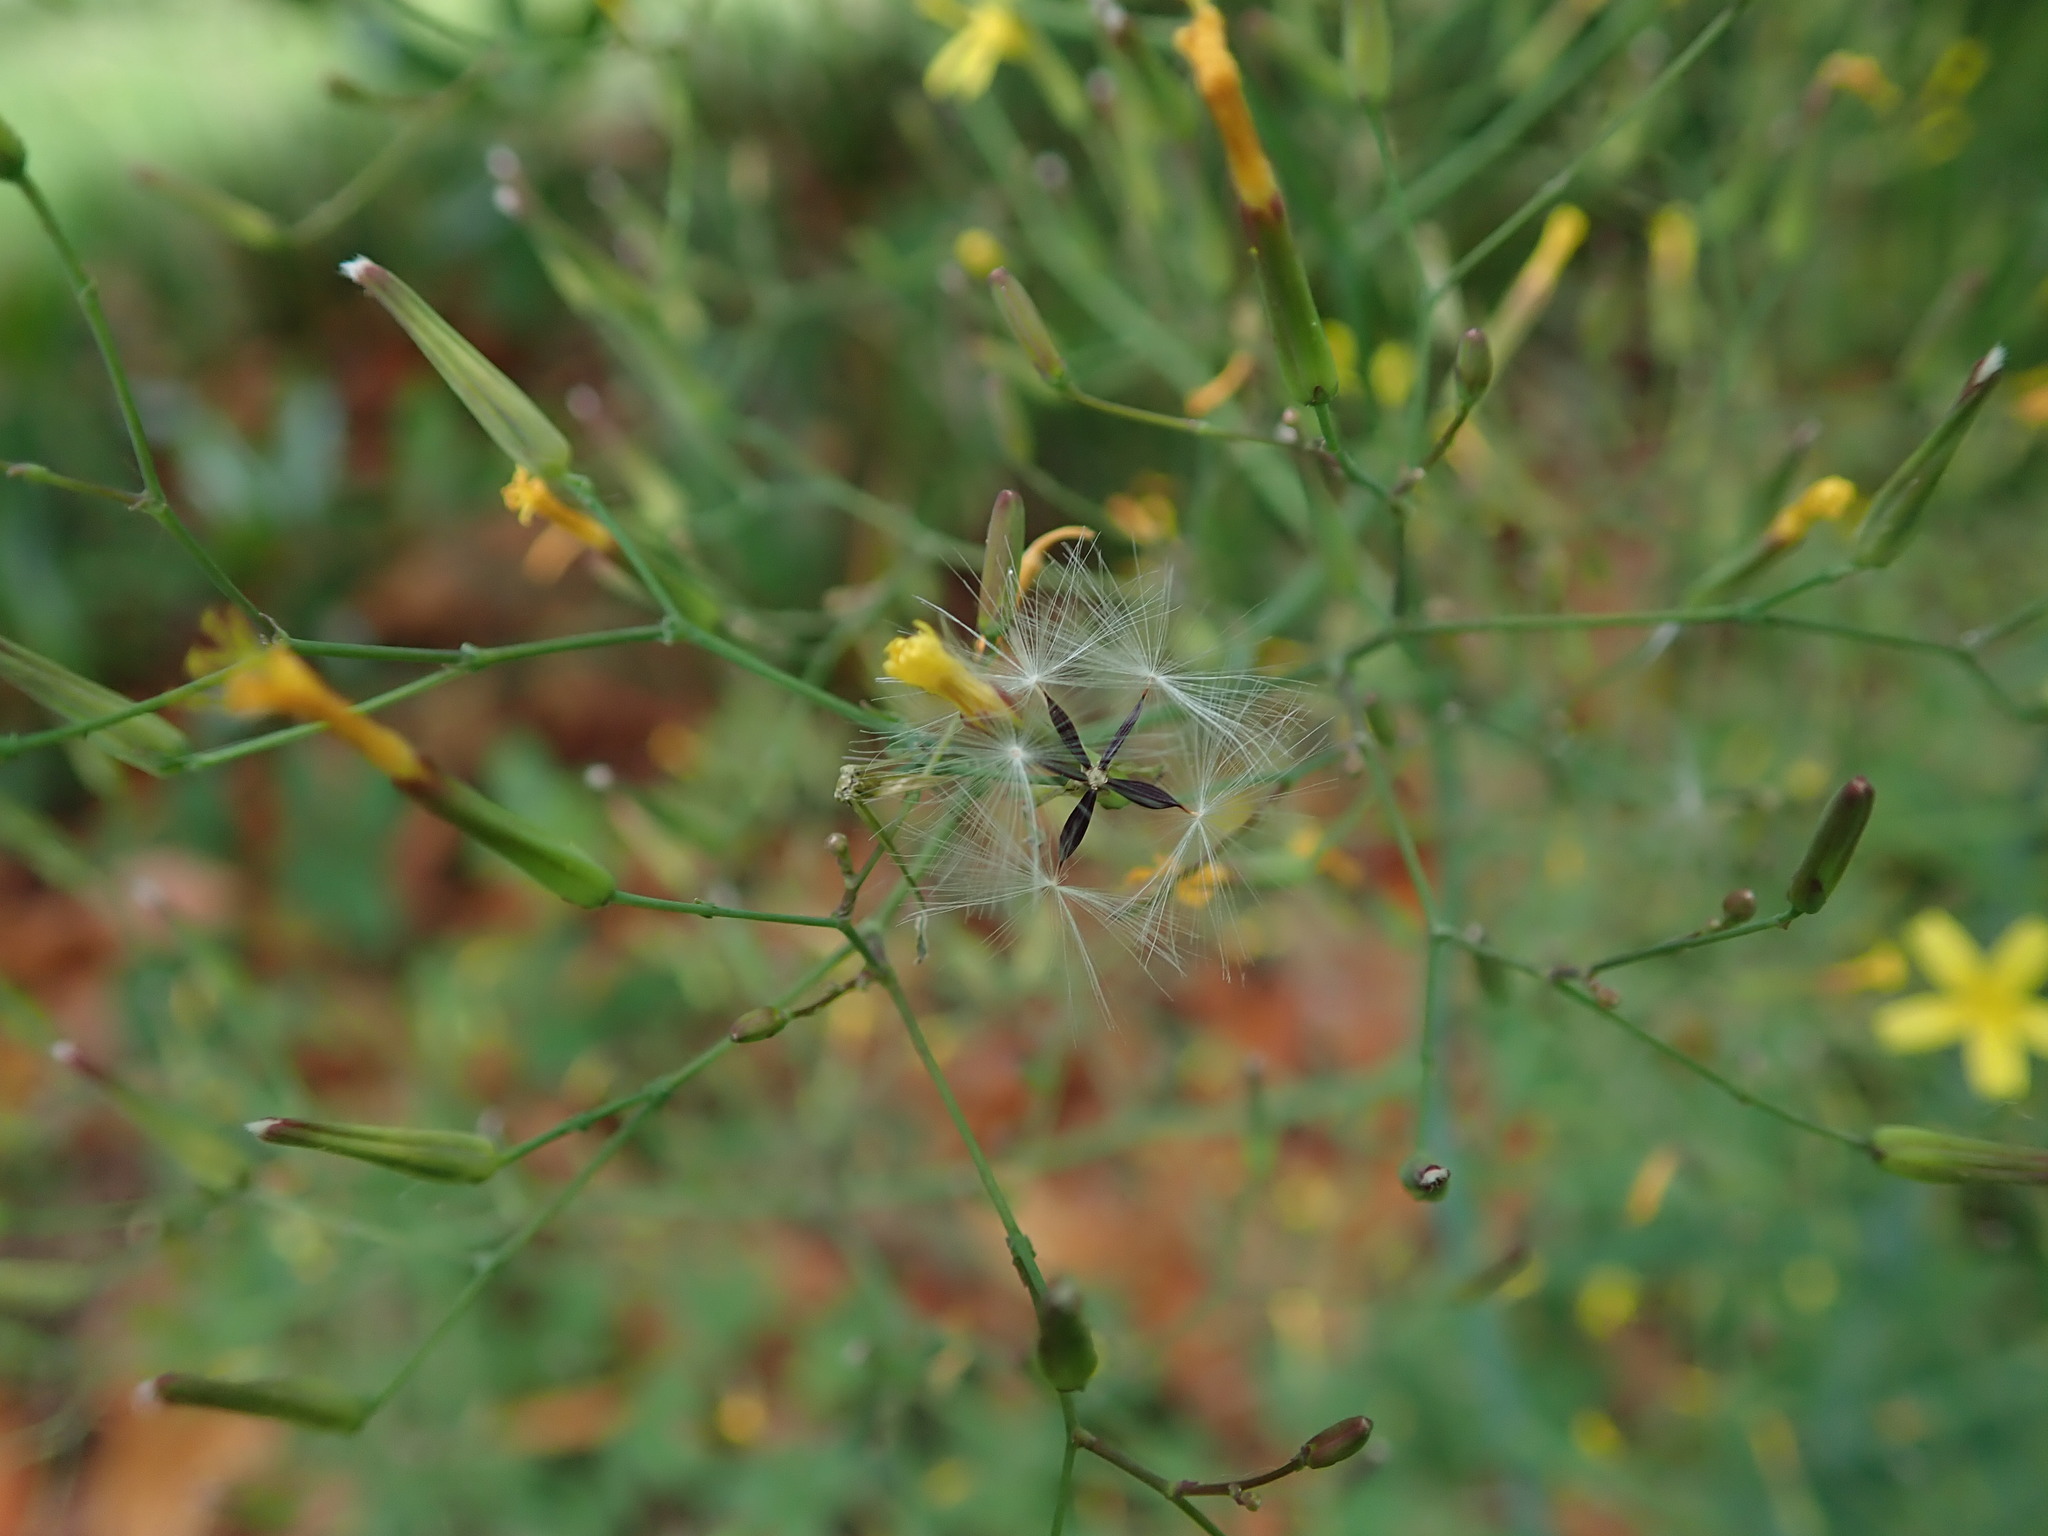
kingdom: Plantae
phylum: Tracheophyta
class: Magnoliopsida
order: Asterales
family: Asteraceae
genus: Mycelis
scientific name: Mycelis muralis
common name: Wall lettuce
